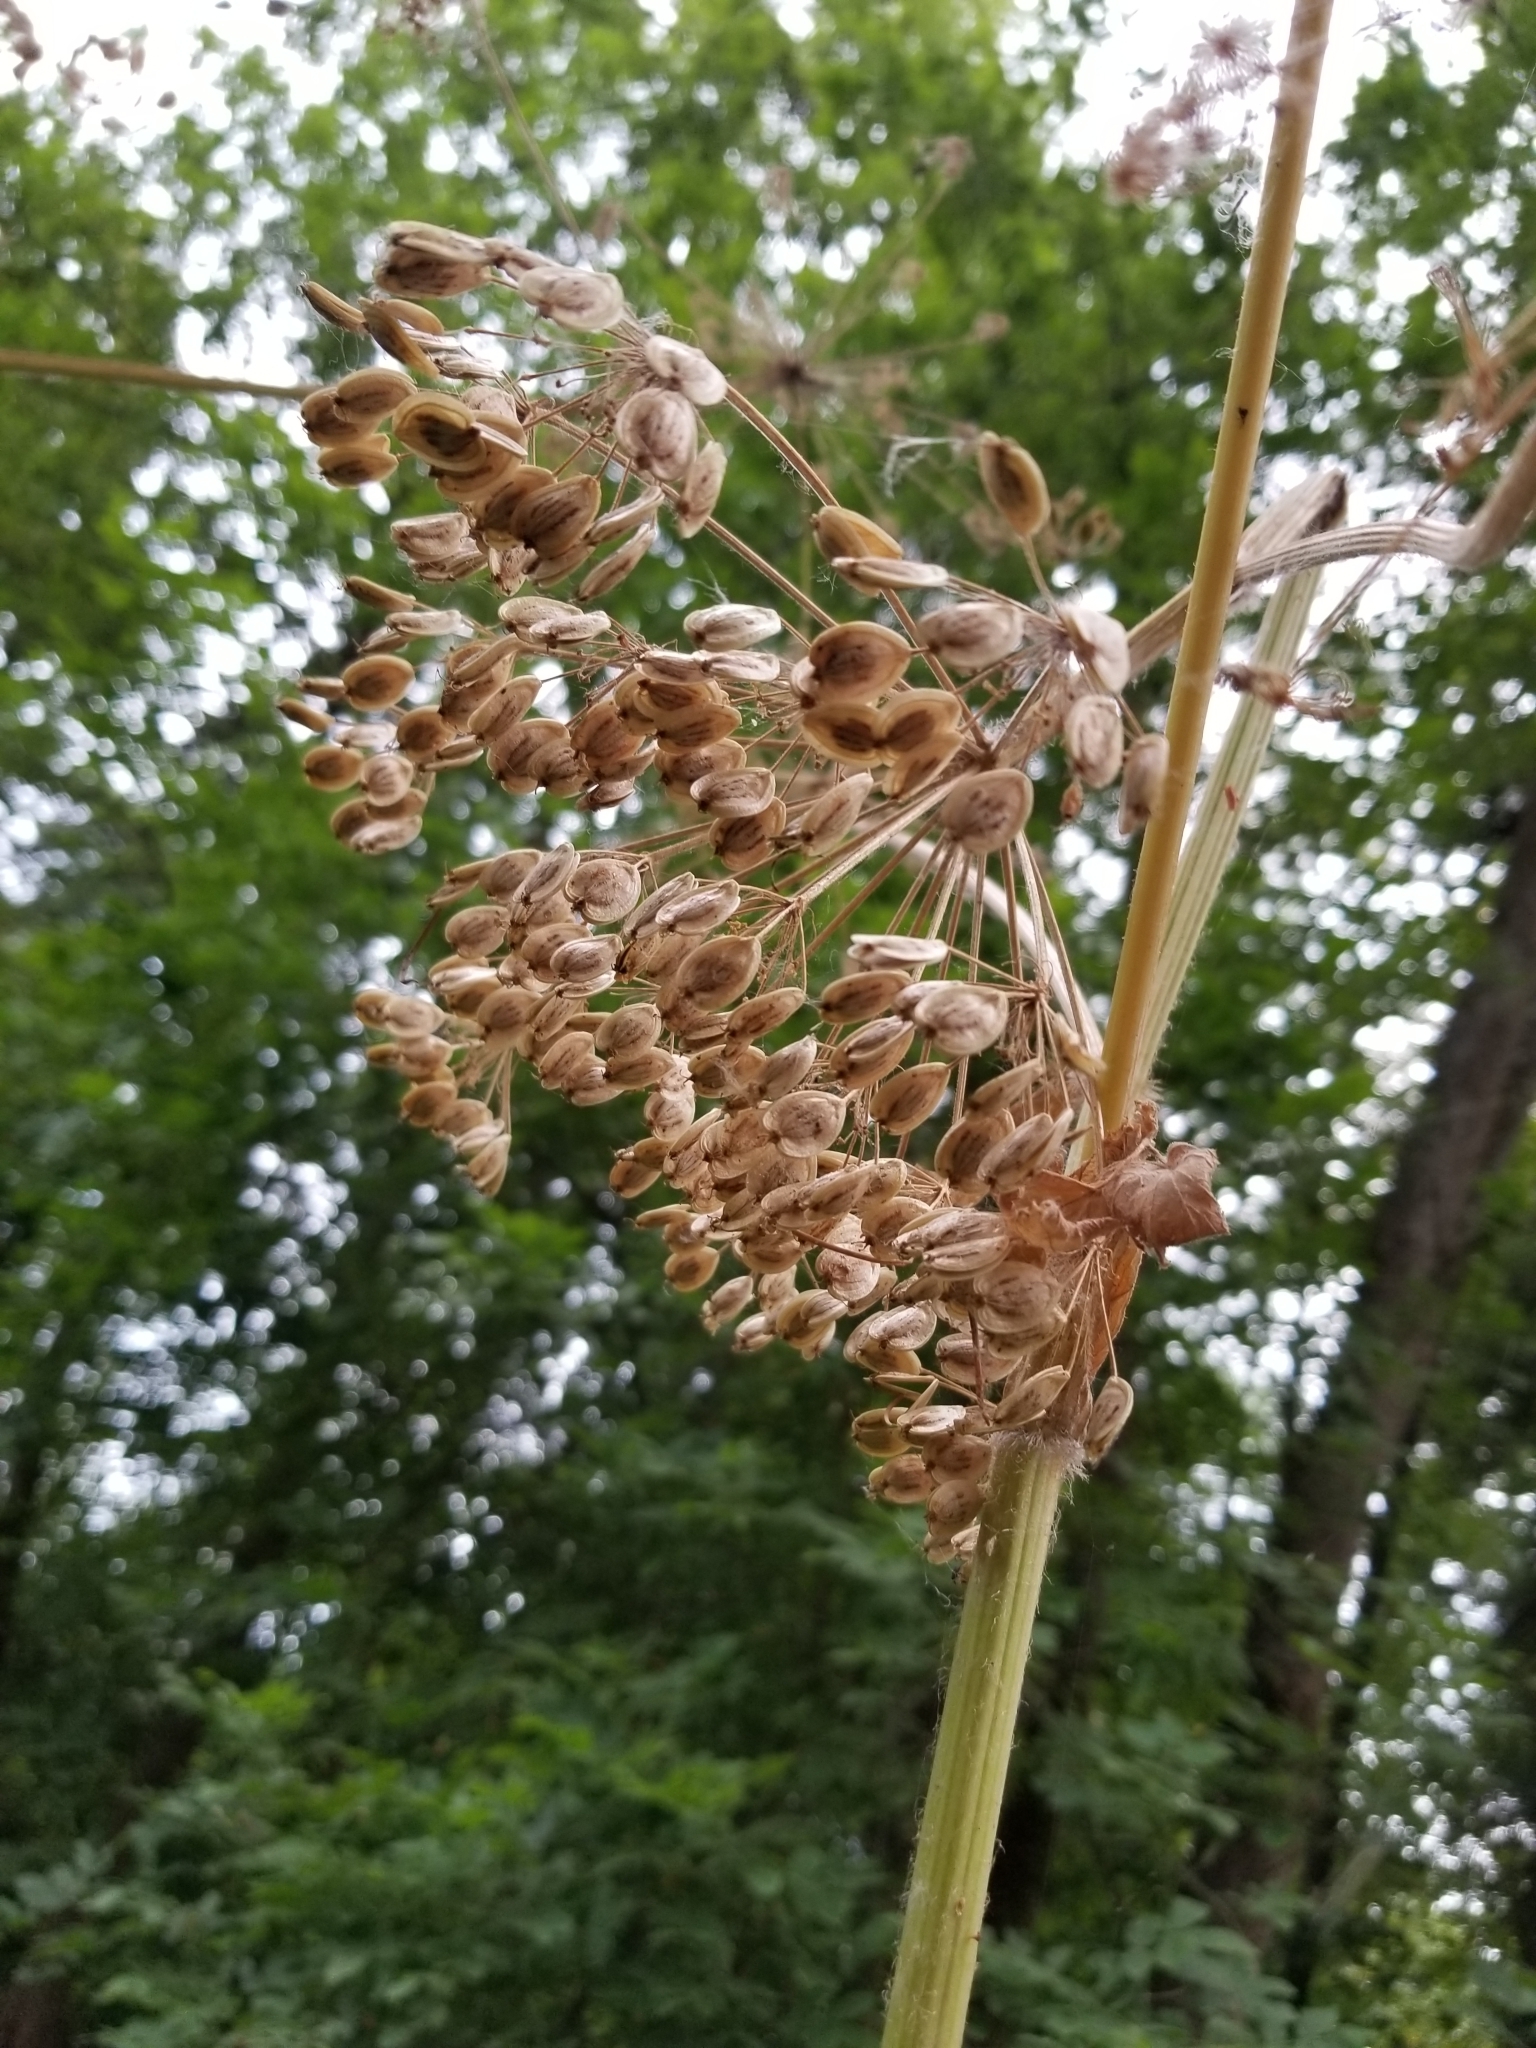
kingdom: Plantae
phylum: Tracheophyta
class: Magnoliopsida
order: Apiales
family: Apiaceae
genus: Heracleum
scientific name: Heracleum maximum
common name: American cow parsnip
